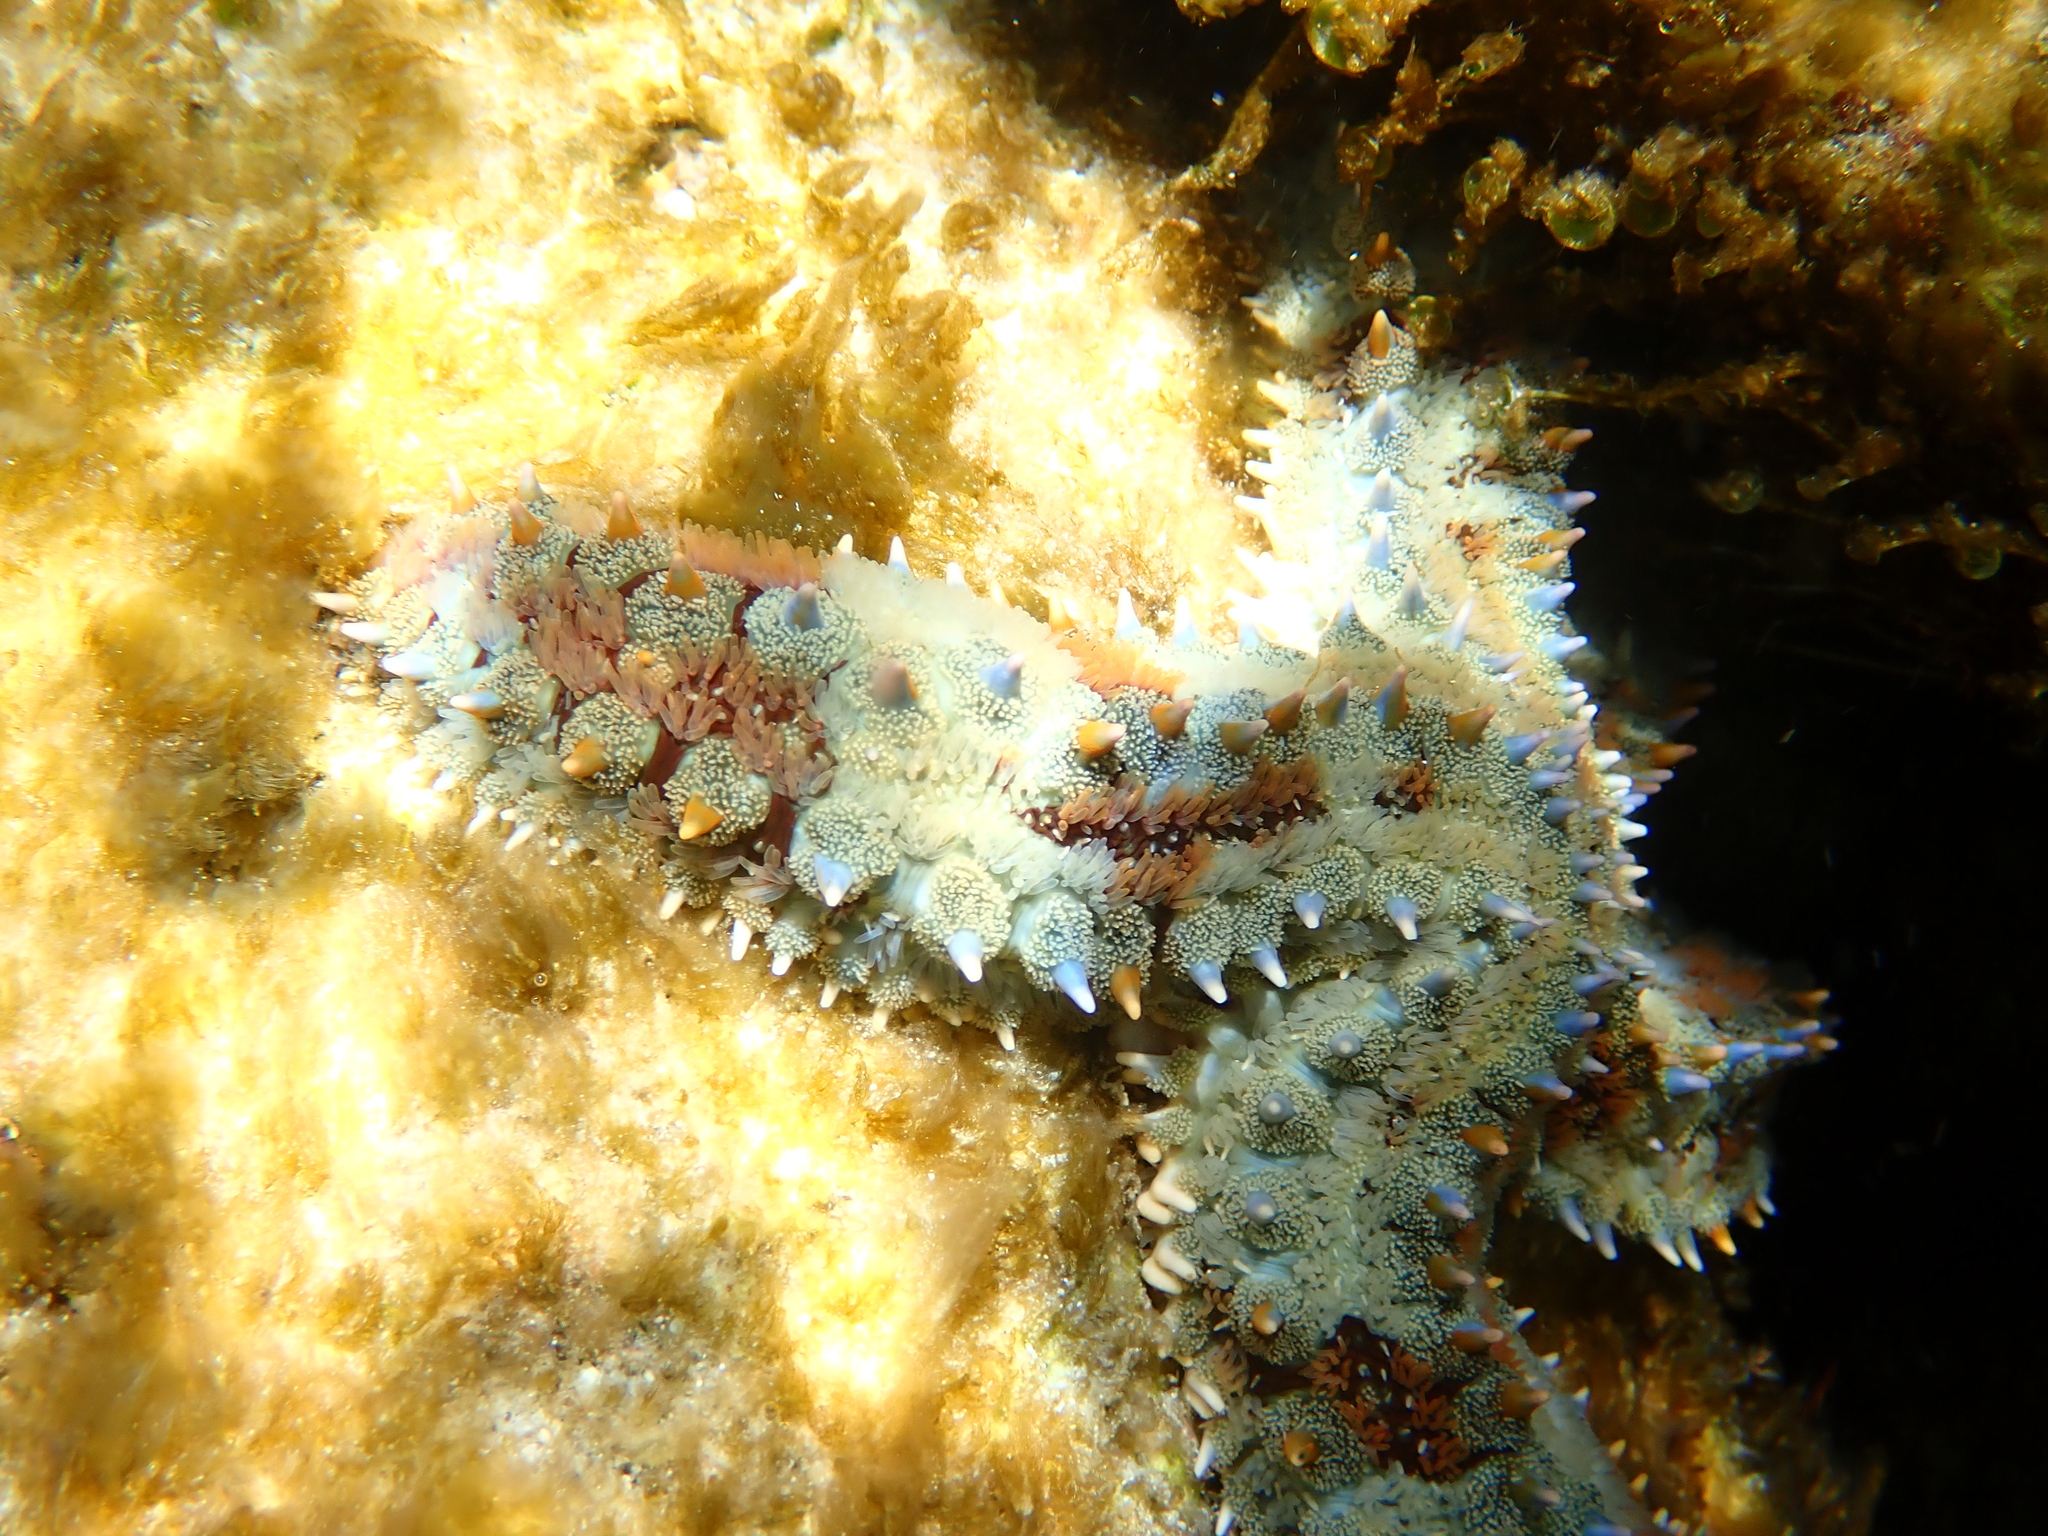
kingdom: Animalia
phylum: Echinodermata
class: Asteroidea
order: Forcipulatida
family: Asteriidae
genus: Marthasterias
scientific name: Marthasterias glacialis
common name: Spiny starfish
